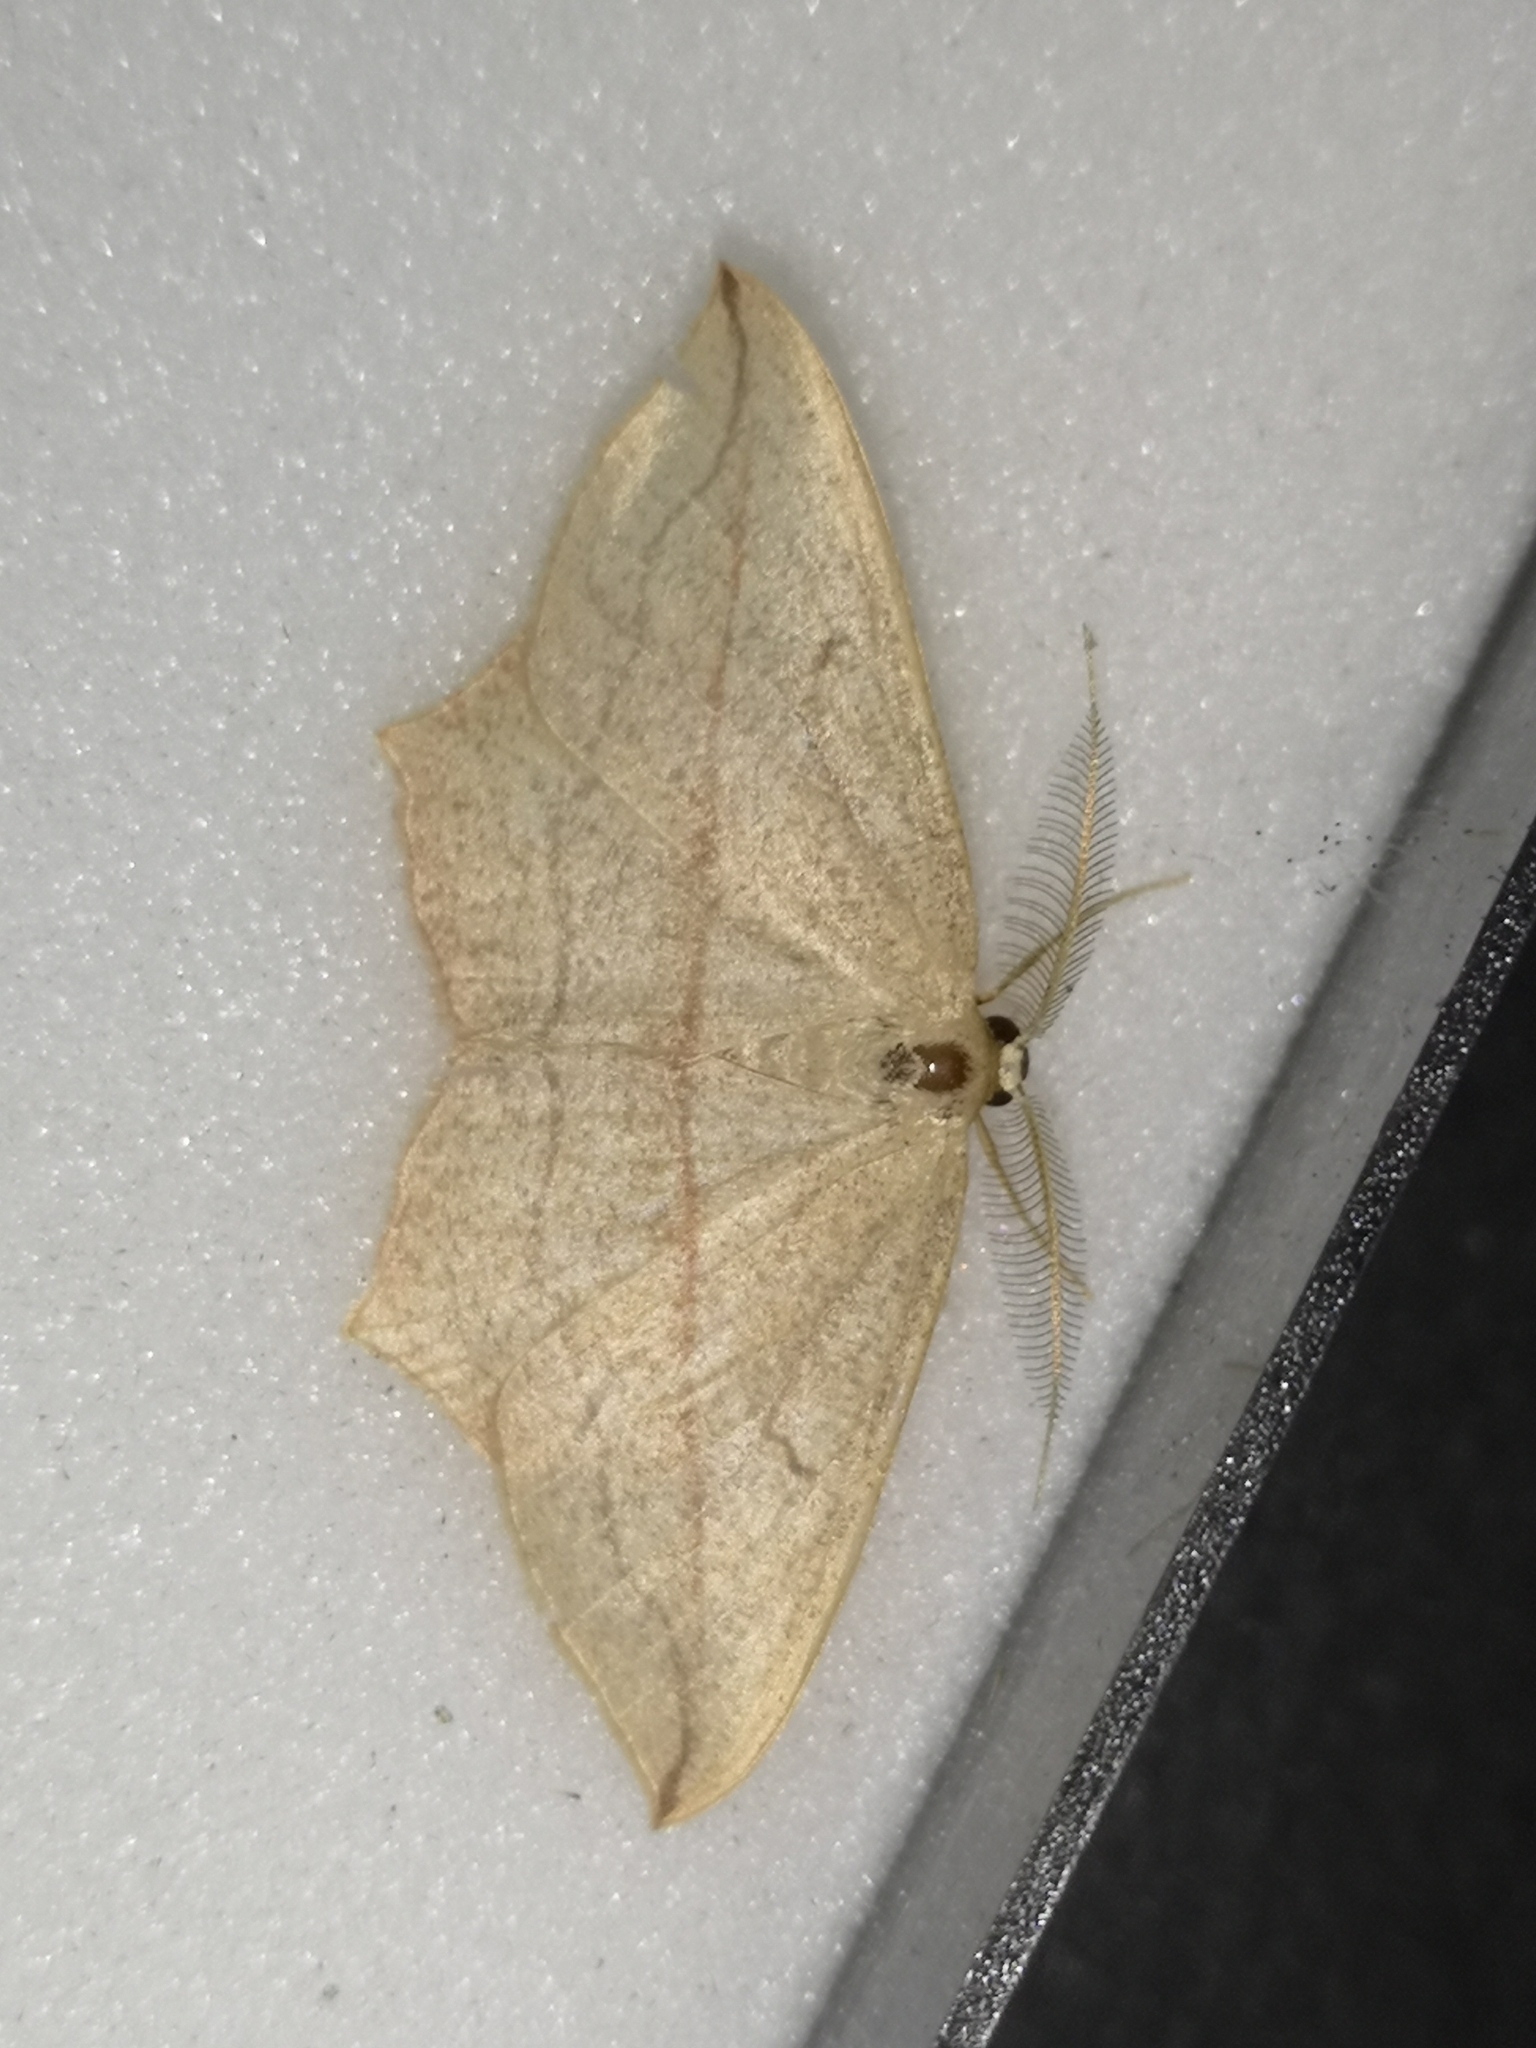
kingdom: Animalia
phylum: Arthropoda
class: Insecta
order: Lepidoptera
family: Geometridae
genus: Timandra
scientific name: Timandra comae
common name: Blood-vein
